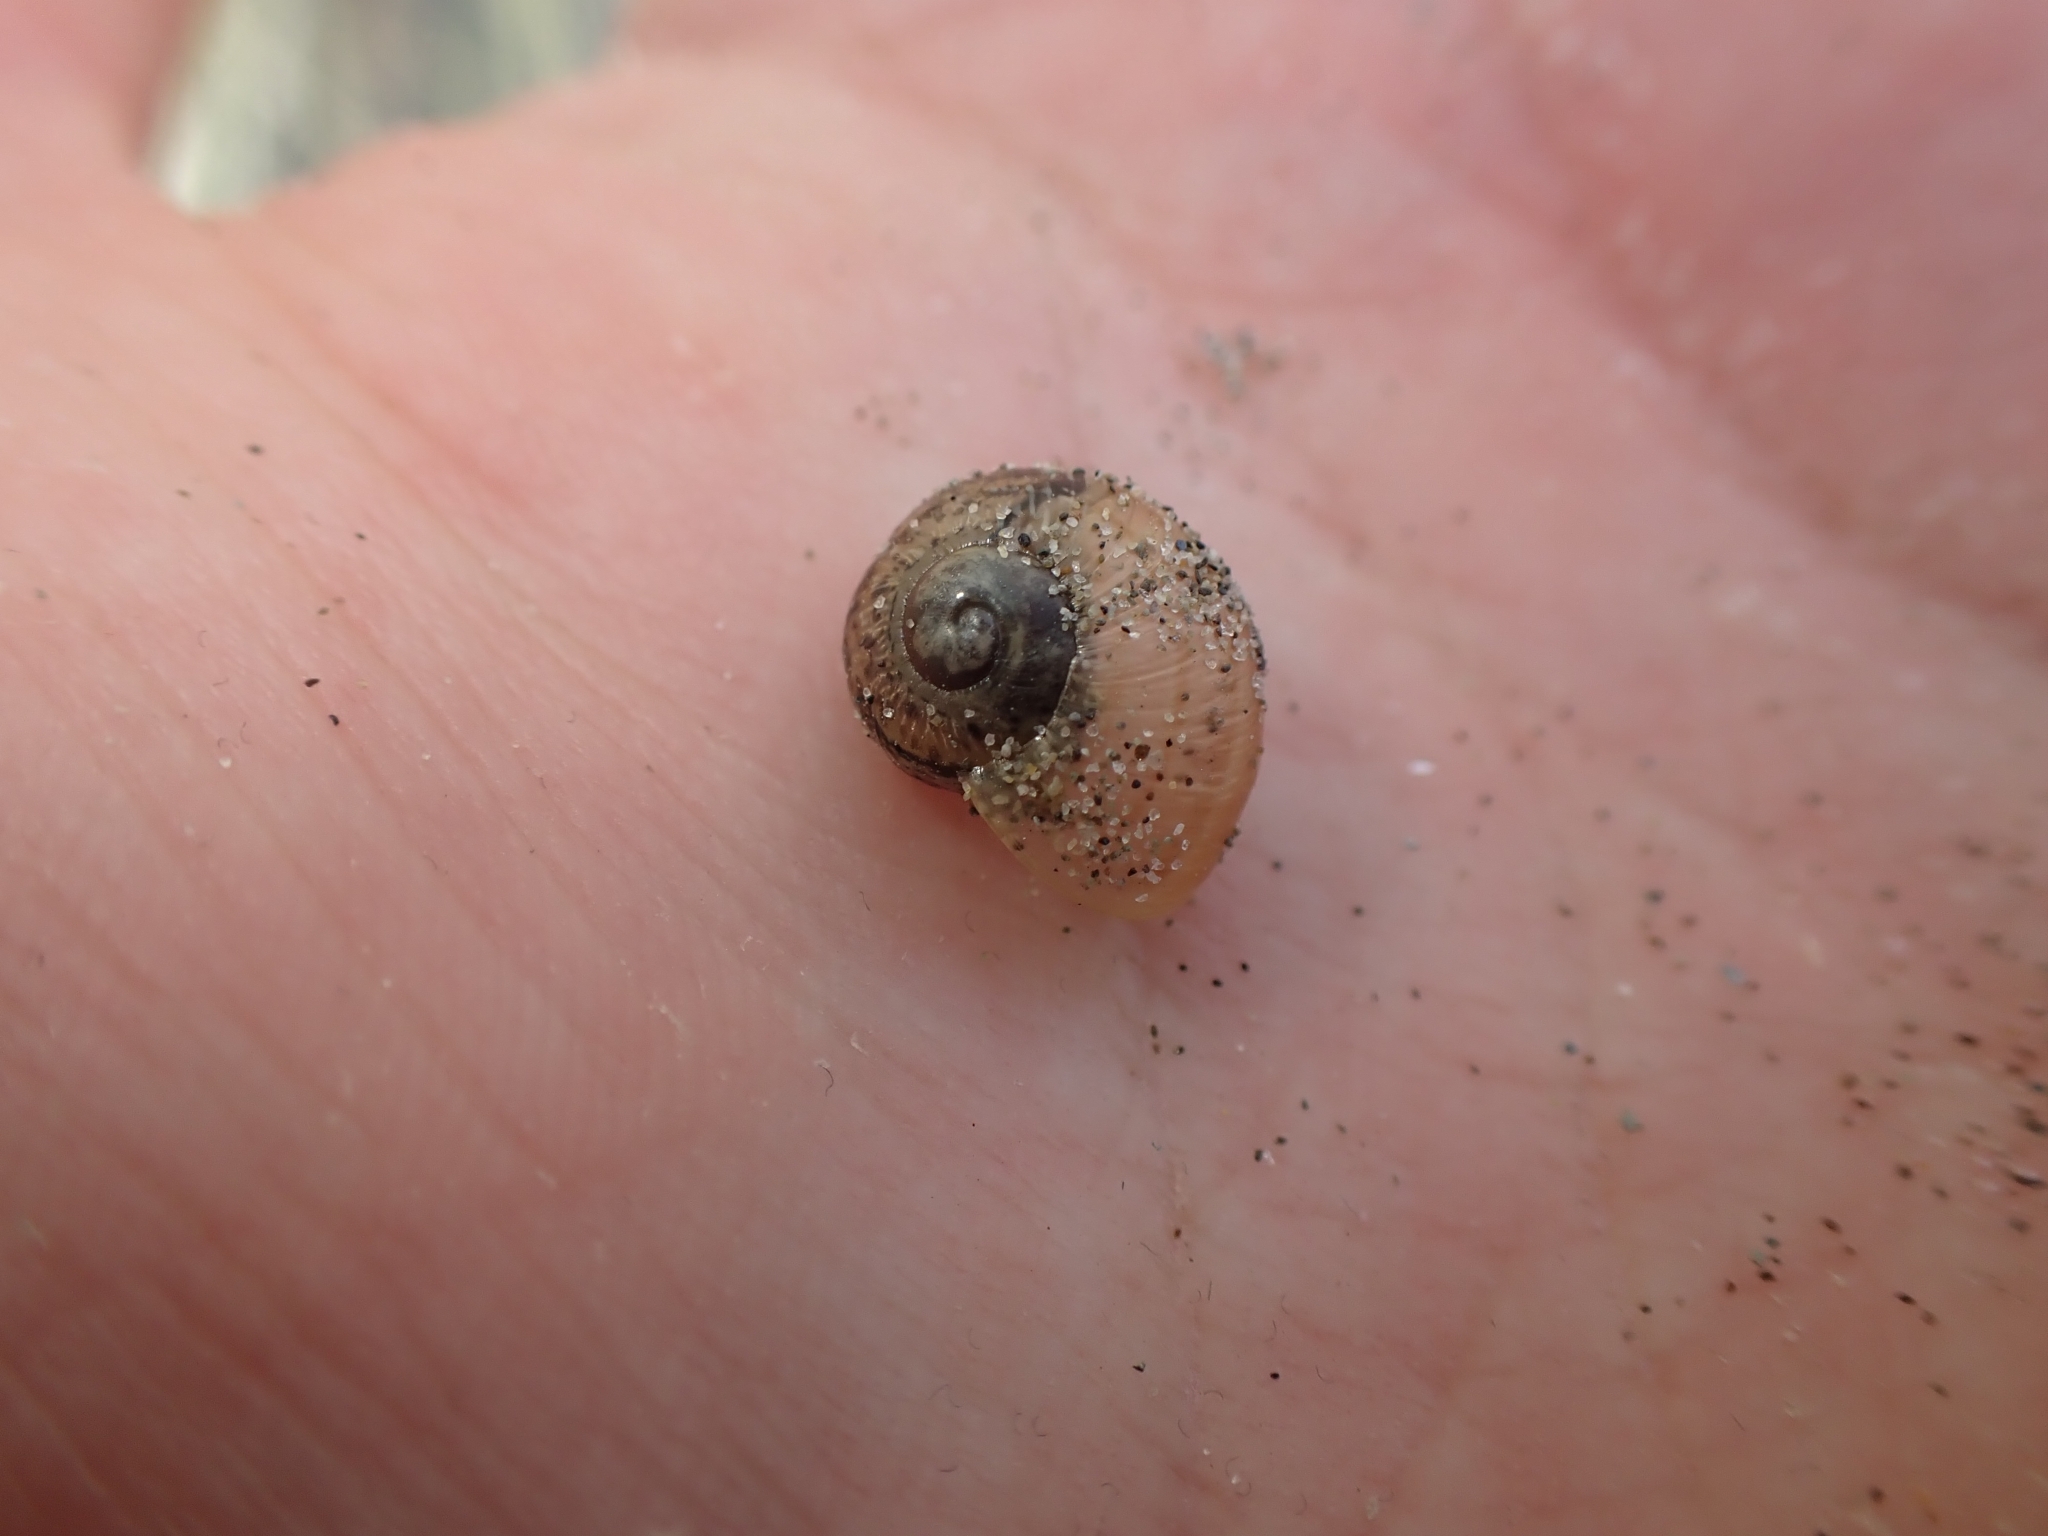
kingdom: Animalia
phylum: Mollusca
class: Gastropoda
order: Stylommatophora
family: Helicidae
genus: Cornu
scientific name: Cornu aspersum
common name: Brown garden snail
